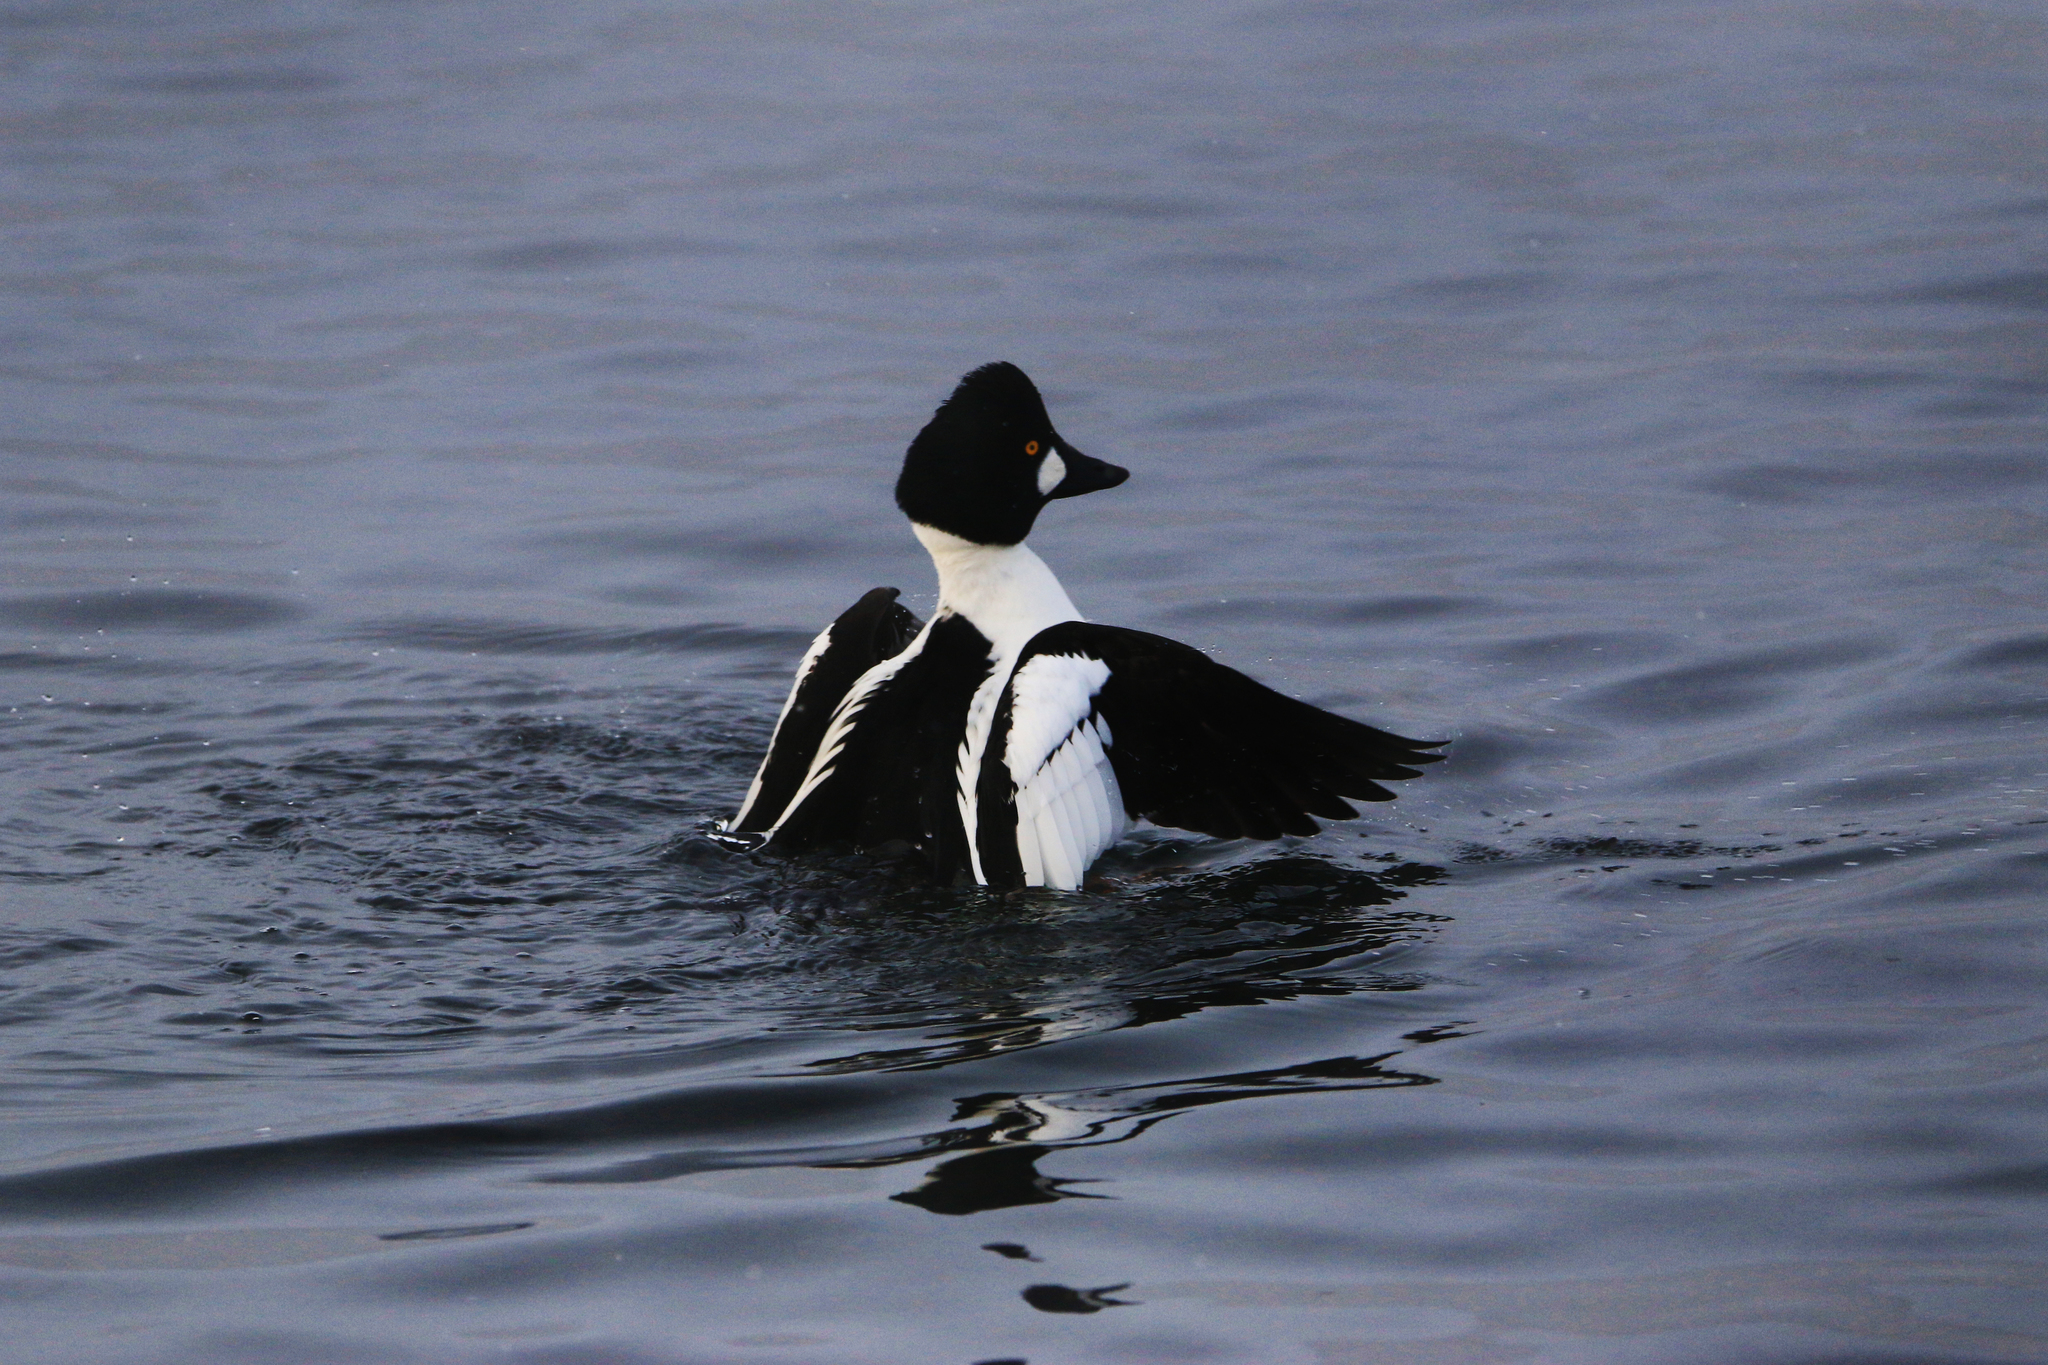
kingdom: Animalia
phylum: Chordata
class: Aves
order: Anseriformes
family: Anatidae
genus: Bucephala
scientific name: Bucephala clangula
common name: Common goldeneye
